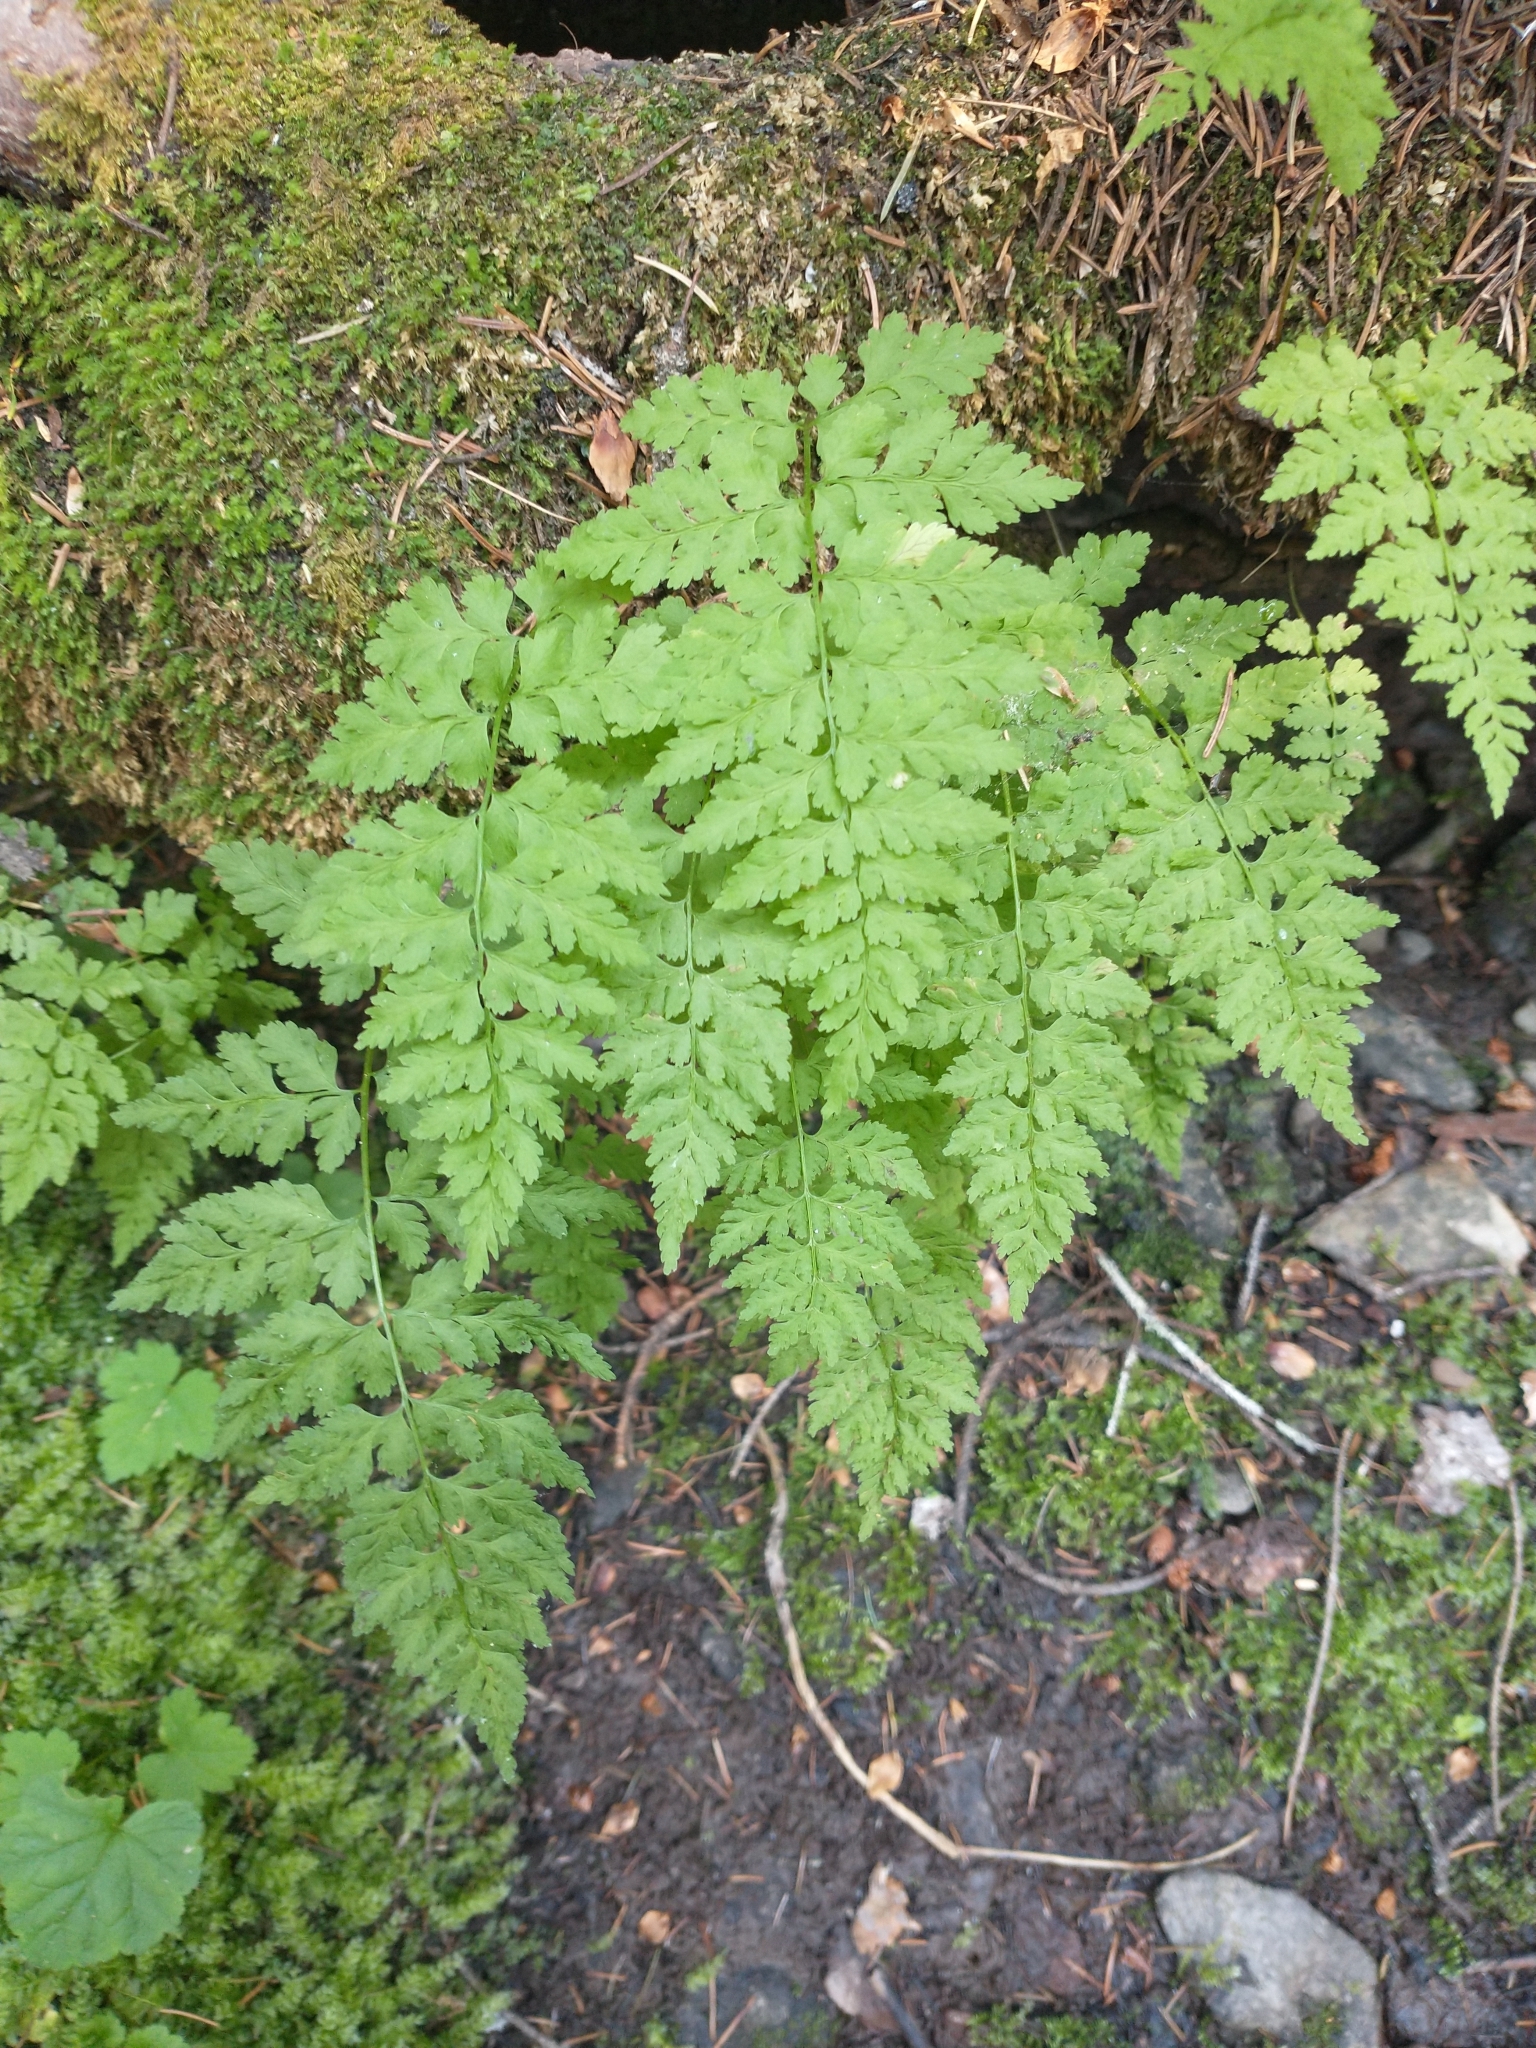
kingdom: Plantae
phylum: Tracheophyta
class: Polypodiopsida
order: Polypodiales
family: Cystopteridaceae
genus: Cystopteris
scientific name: Cystopteris fragilis
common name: Brittle bladder fern
